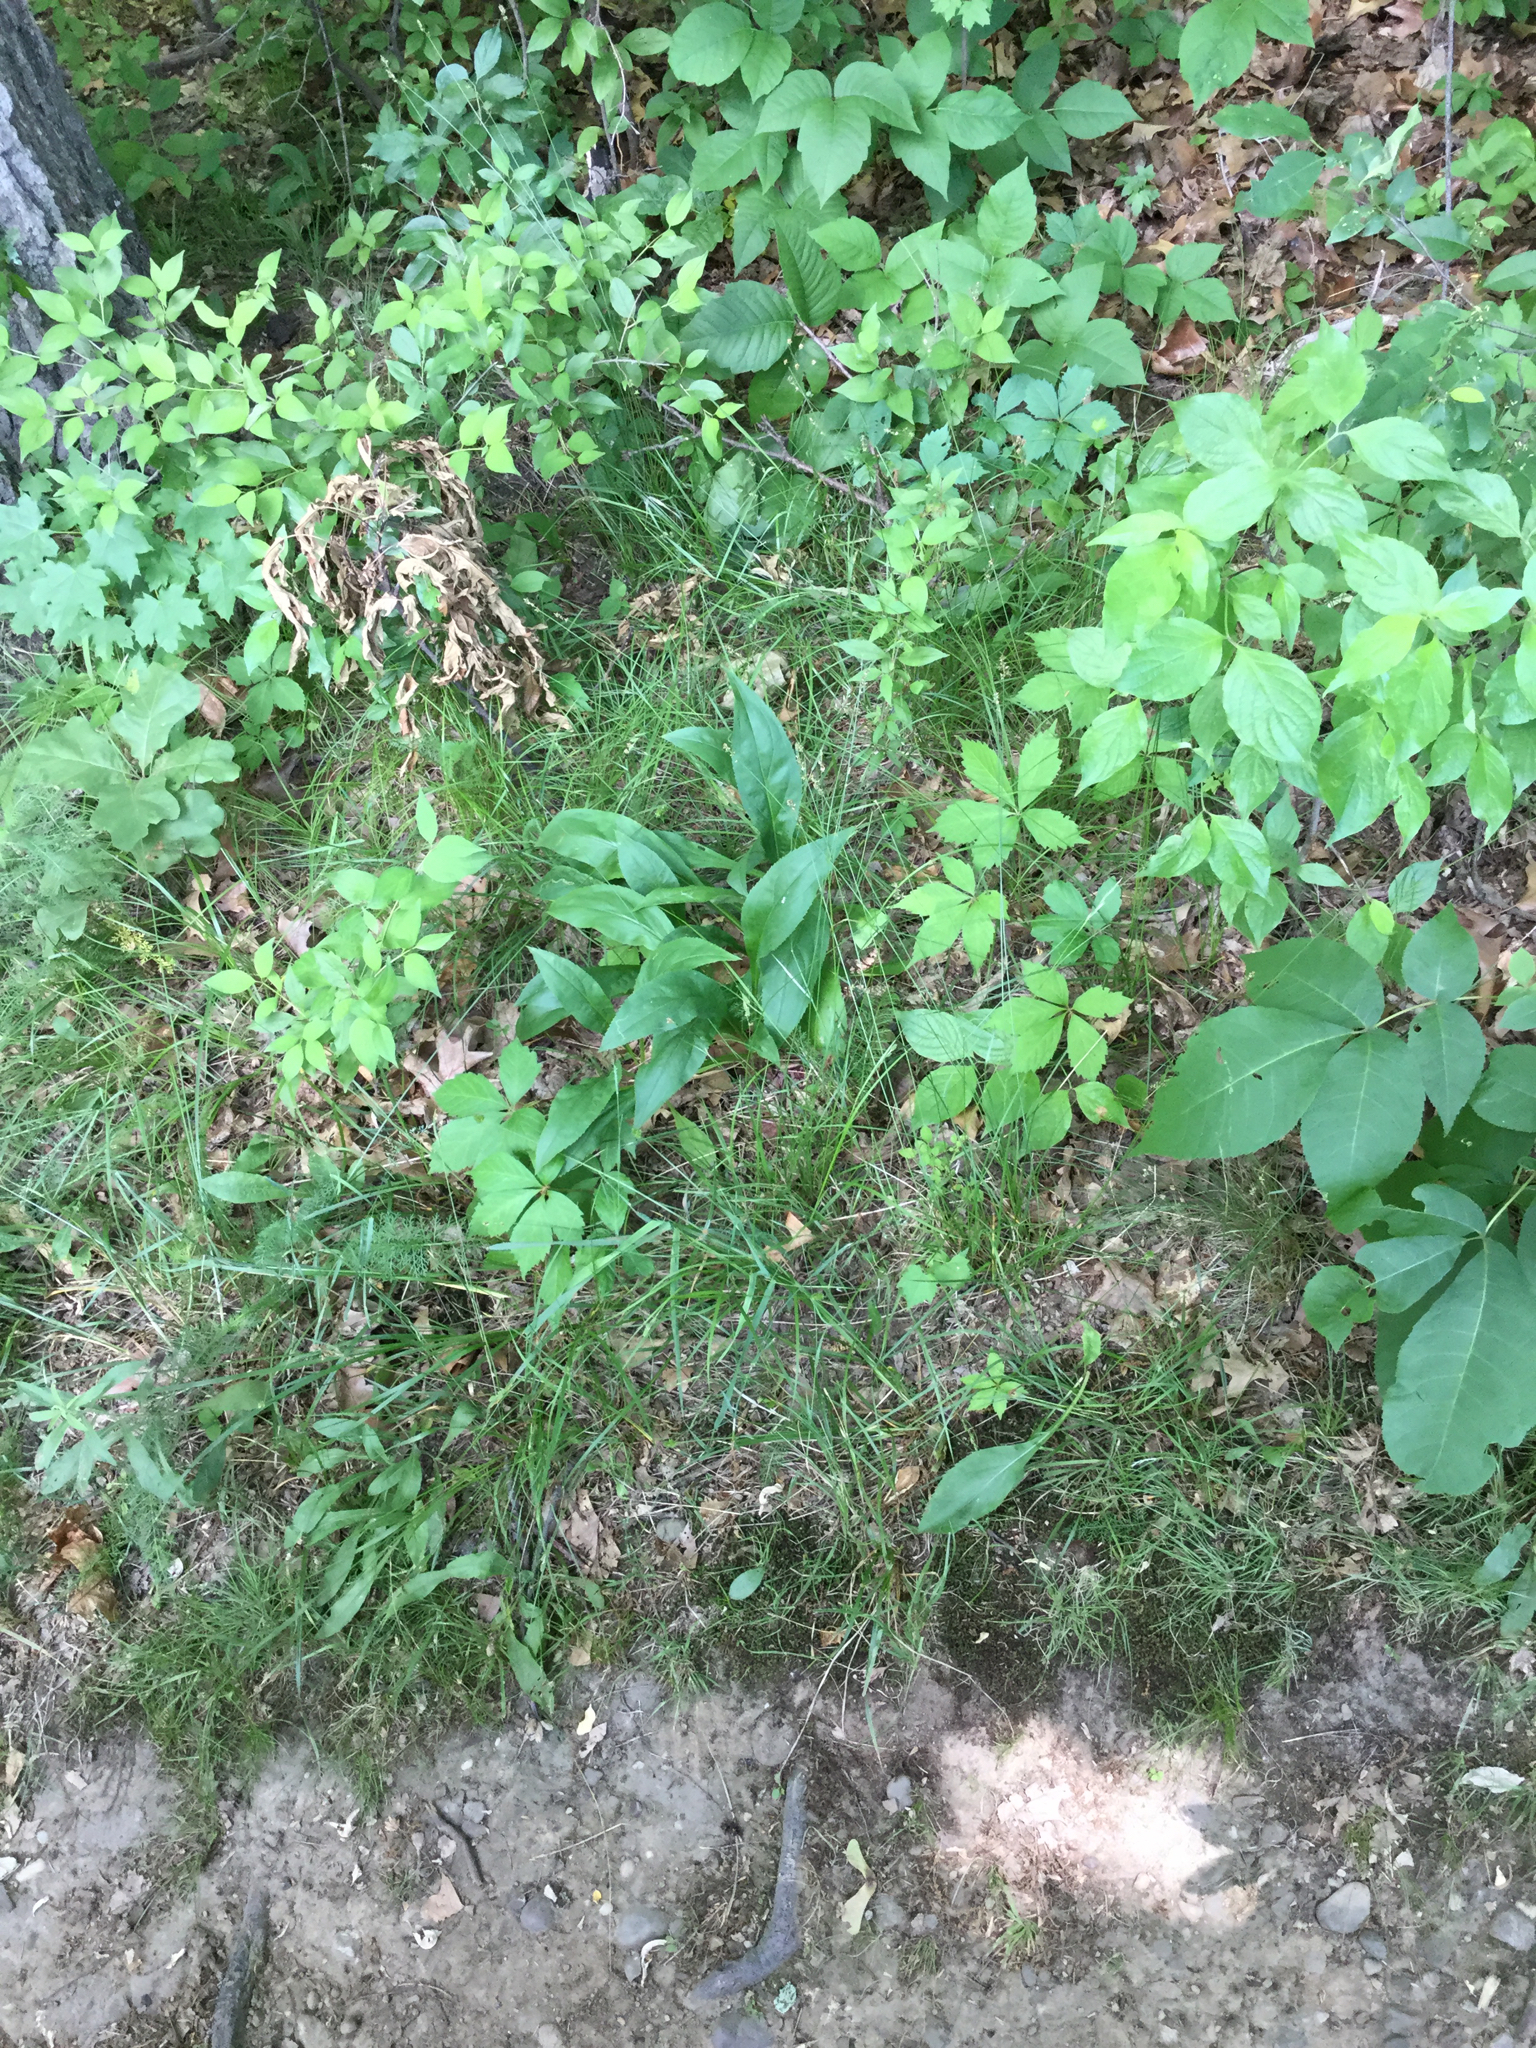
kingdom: Plantae
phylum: Tracheophyta
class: Liliopsida
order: Poales
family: Cyperaceae
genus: Carex
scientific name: Carex retroflexa
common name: Reflexed sedge
